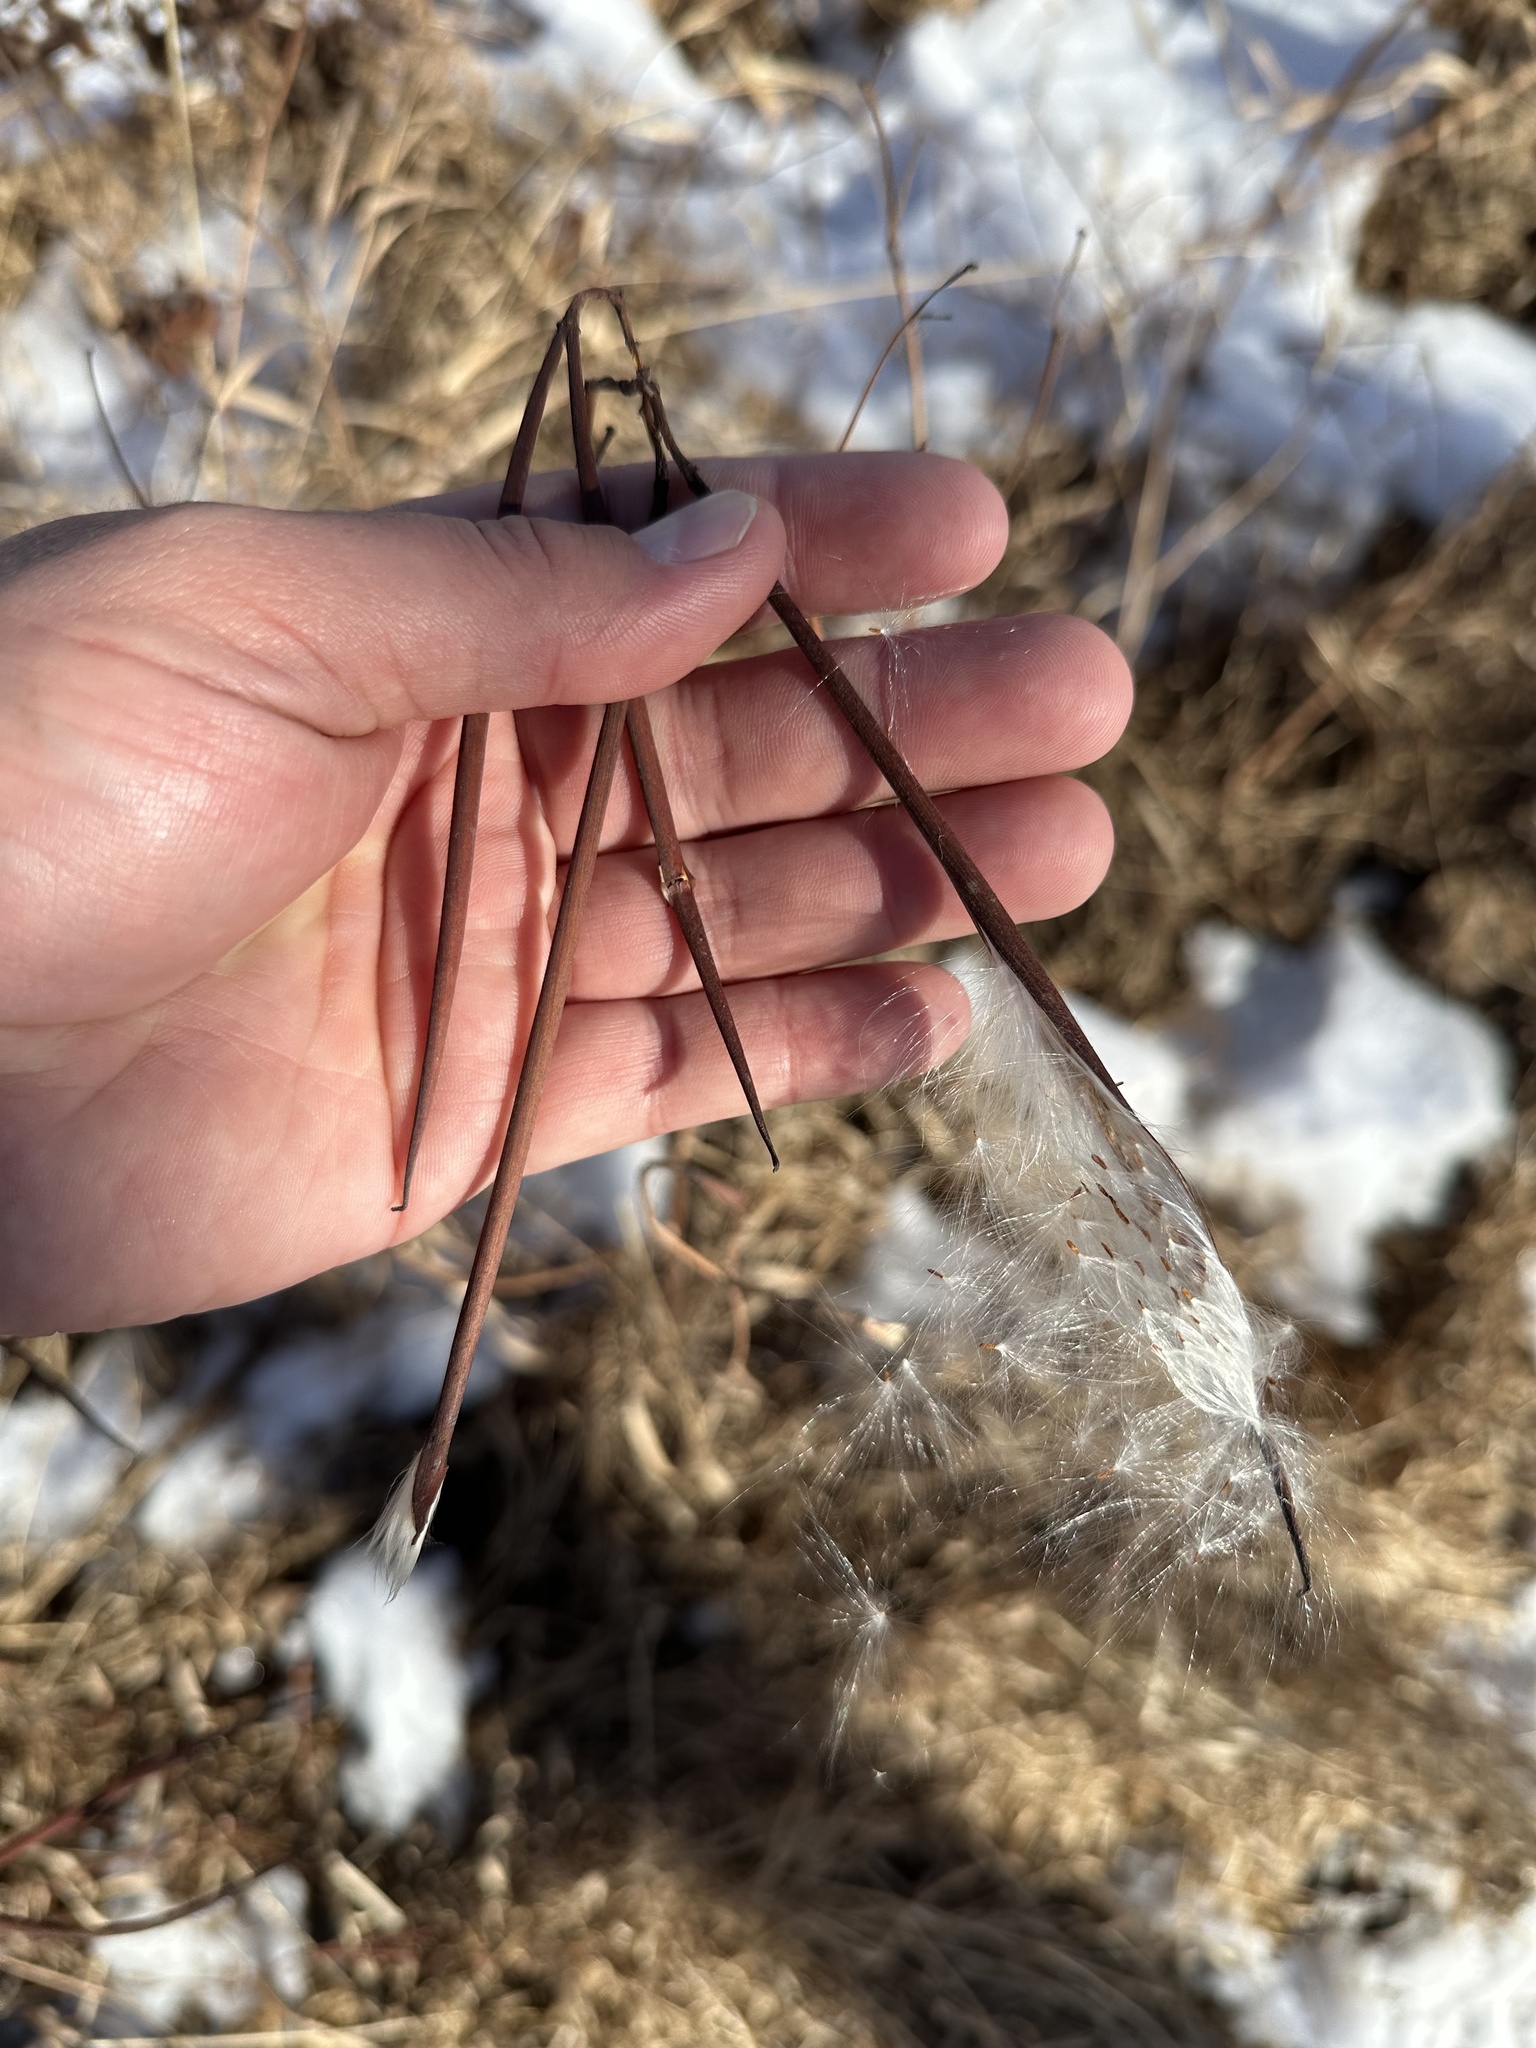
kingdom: Plantae
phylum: Tracheophyta
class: Magnoliopsida
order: Gentianales
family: Apocynaceae
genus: Apocynum
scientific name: Apocynum androsaemifolium
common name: Spreading dogbane
